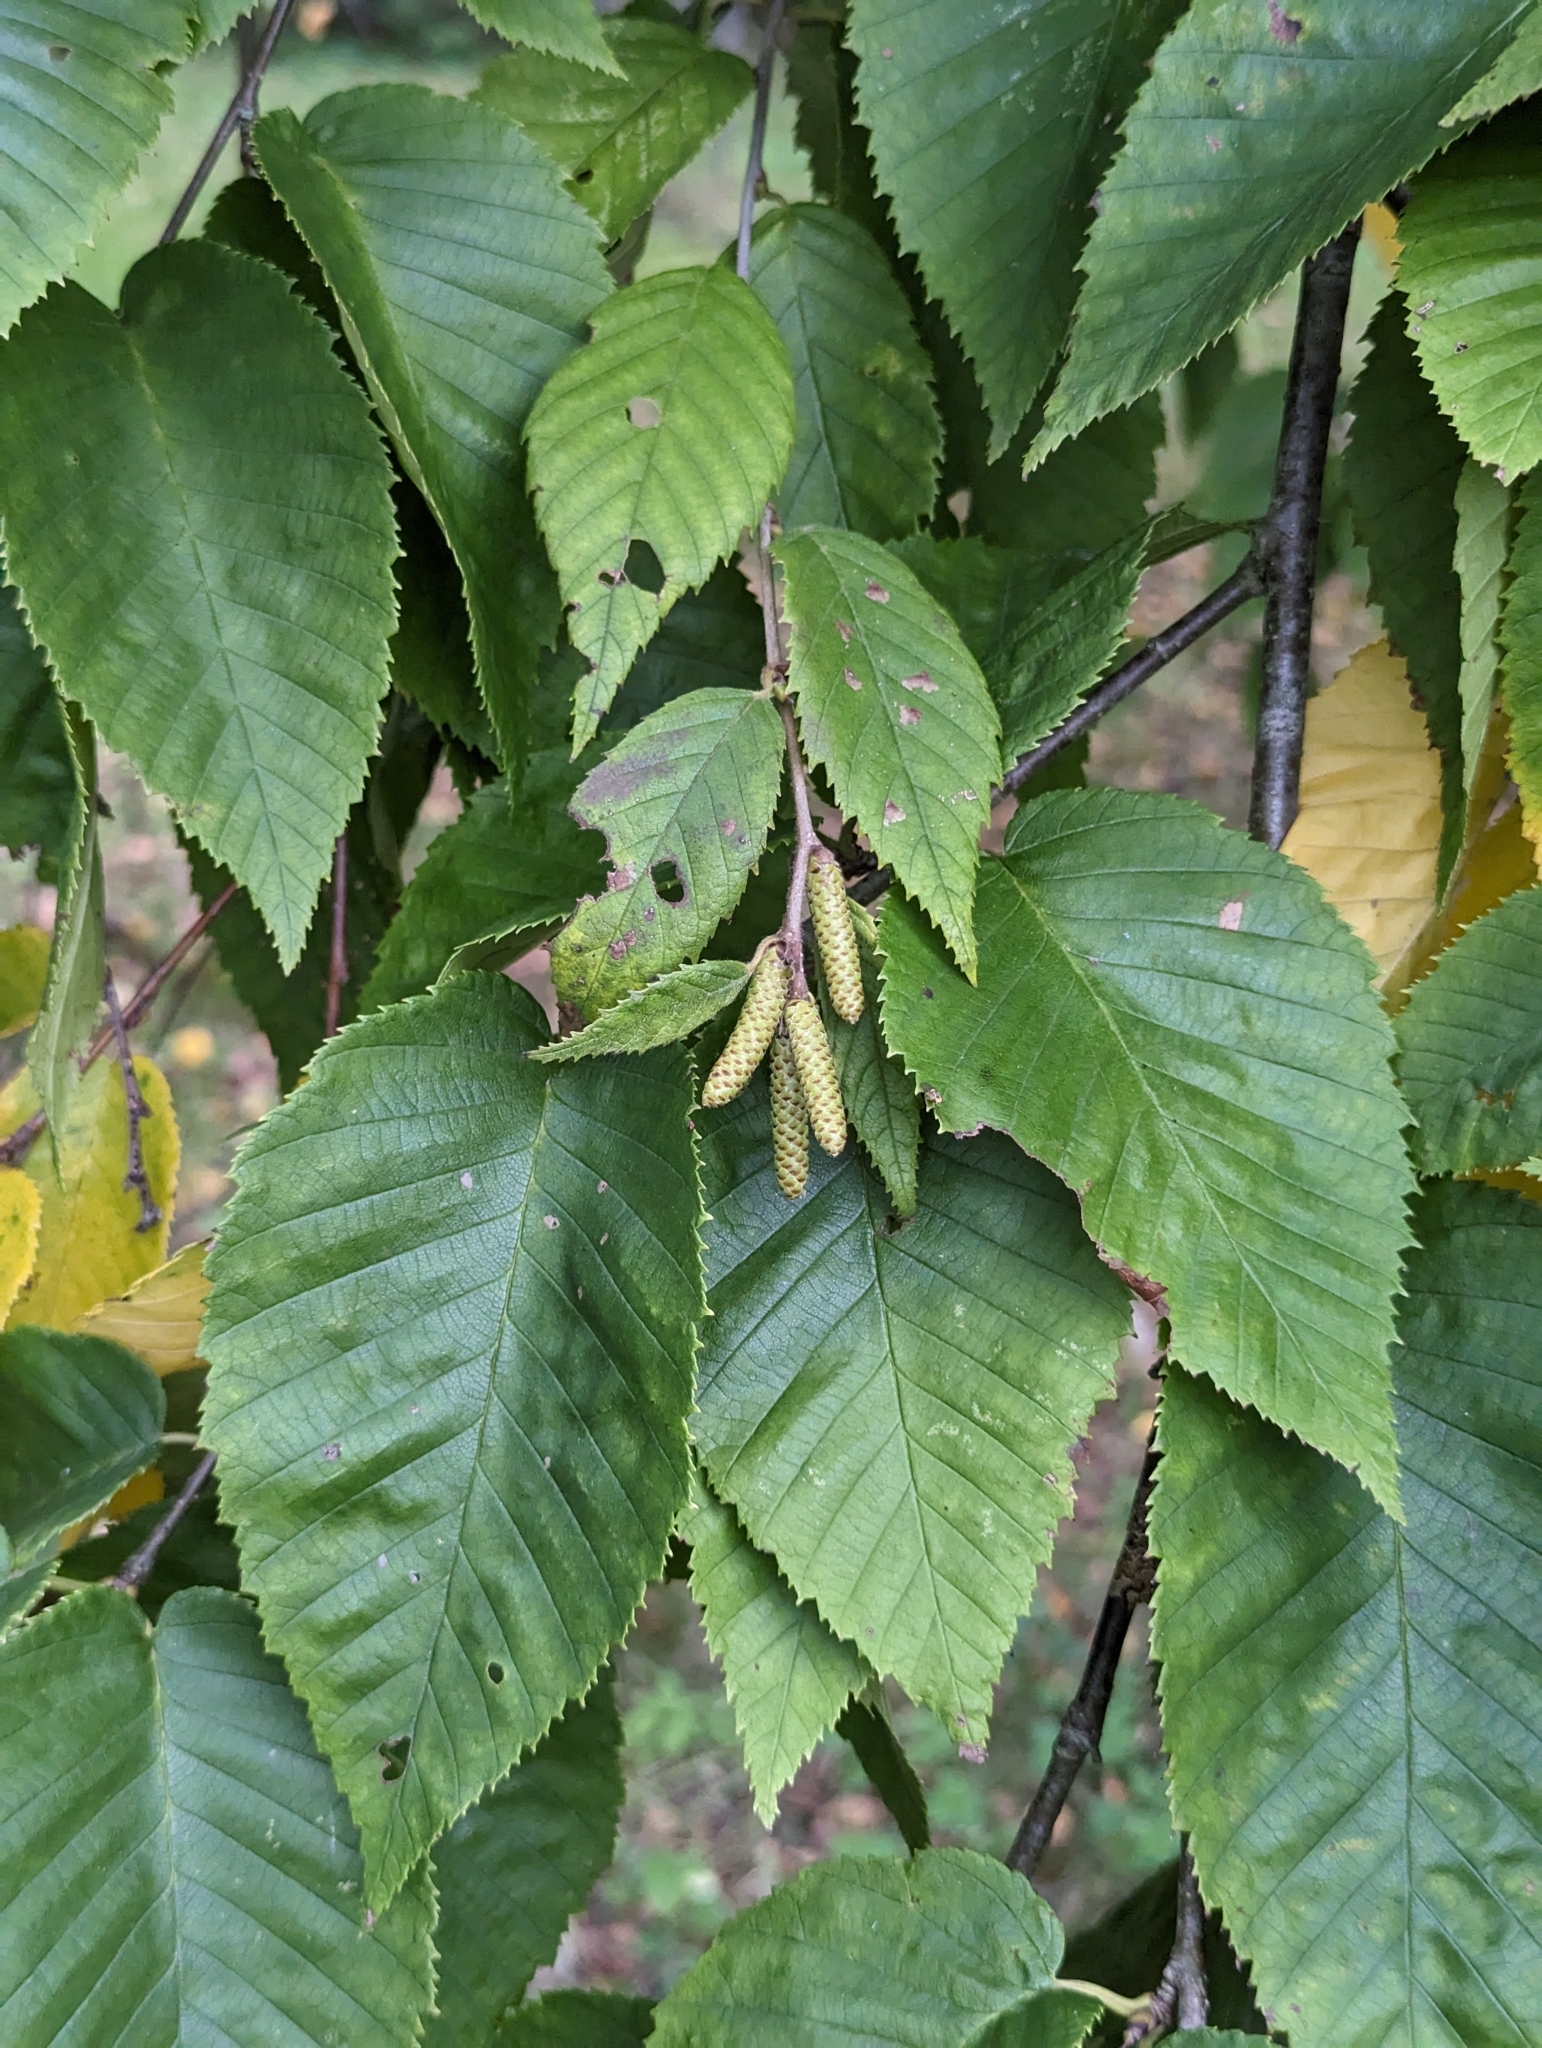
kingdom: Plantae
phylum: Tracheophyta
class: Magnoliopsida
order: Fagales
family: Betulaceae
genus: Carpinus
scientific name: Carpinus betulus
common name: Hornbeam
